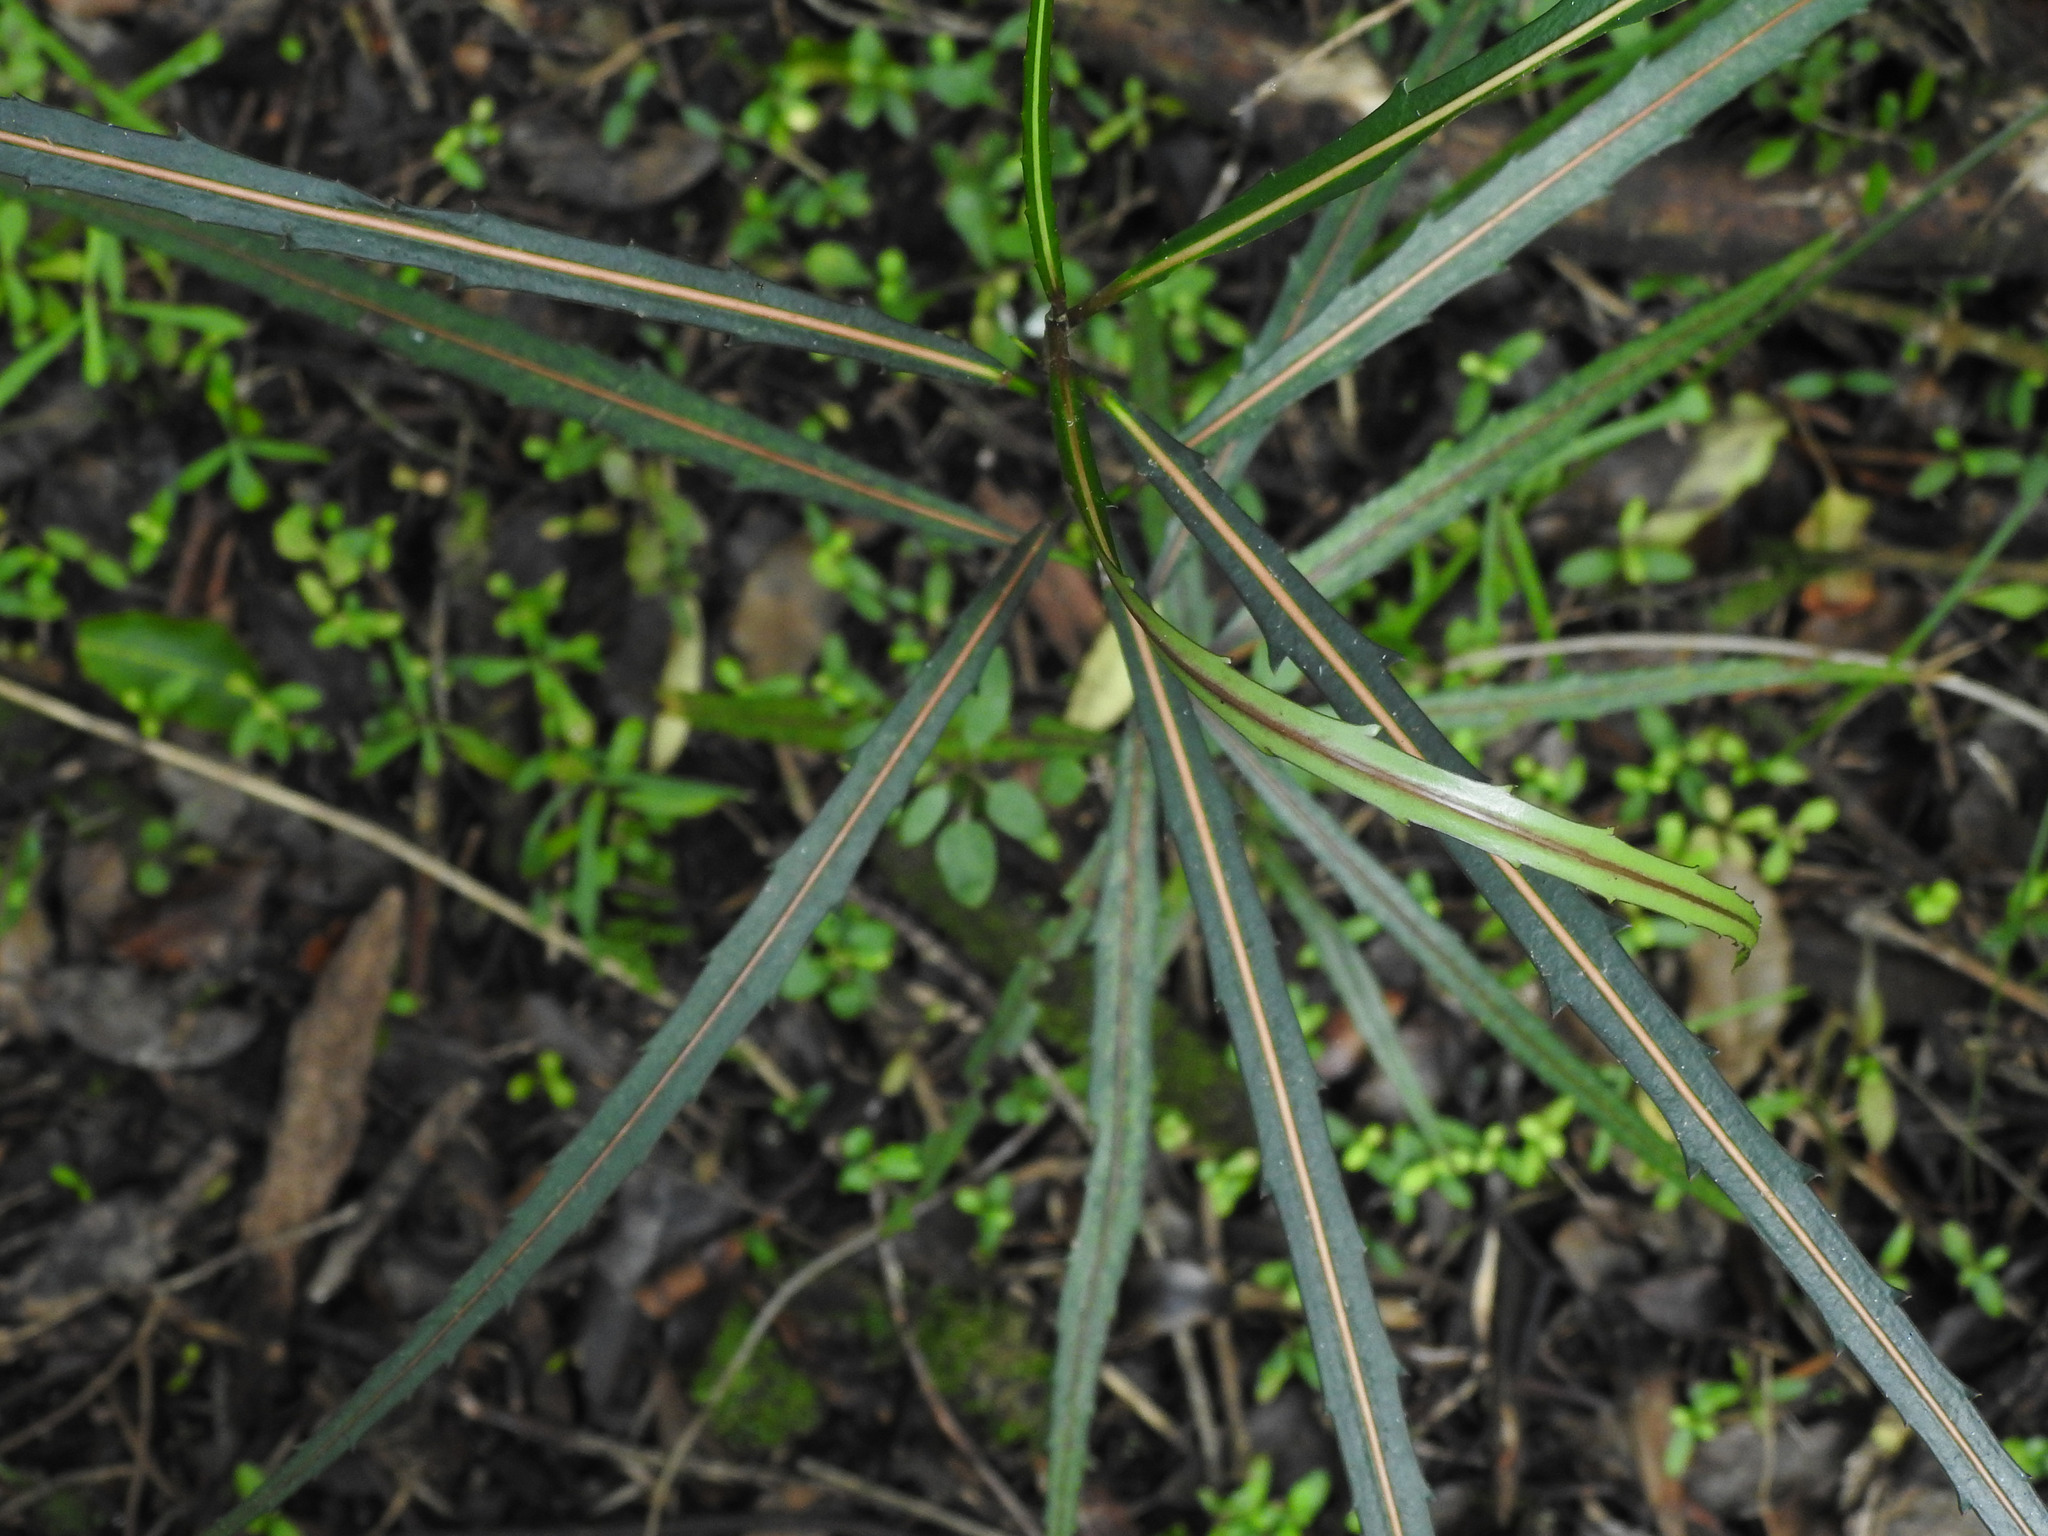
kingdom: Plantae
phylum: Tracheophyta
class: Magnoliopsida
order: Apiales
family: Araliaceae
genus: Pseudopanax
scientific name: Pseudopanax crassifolius
